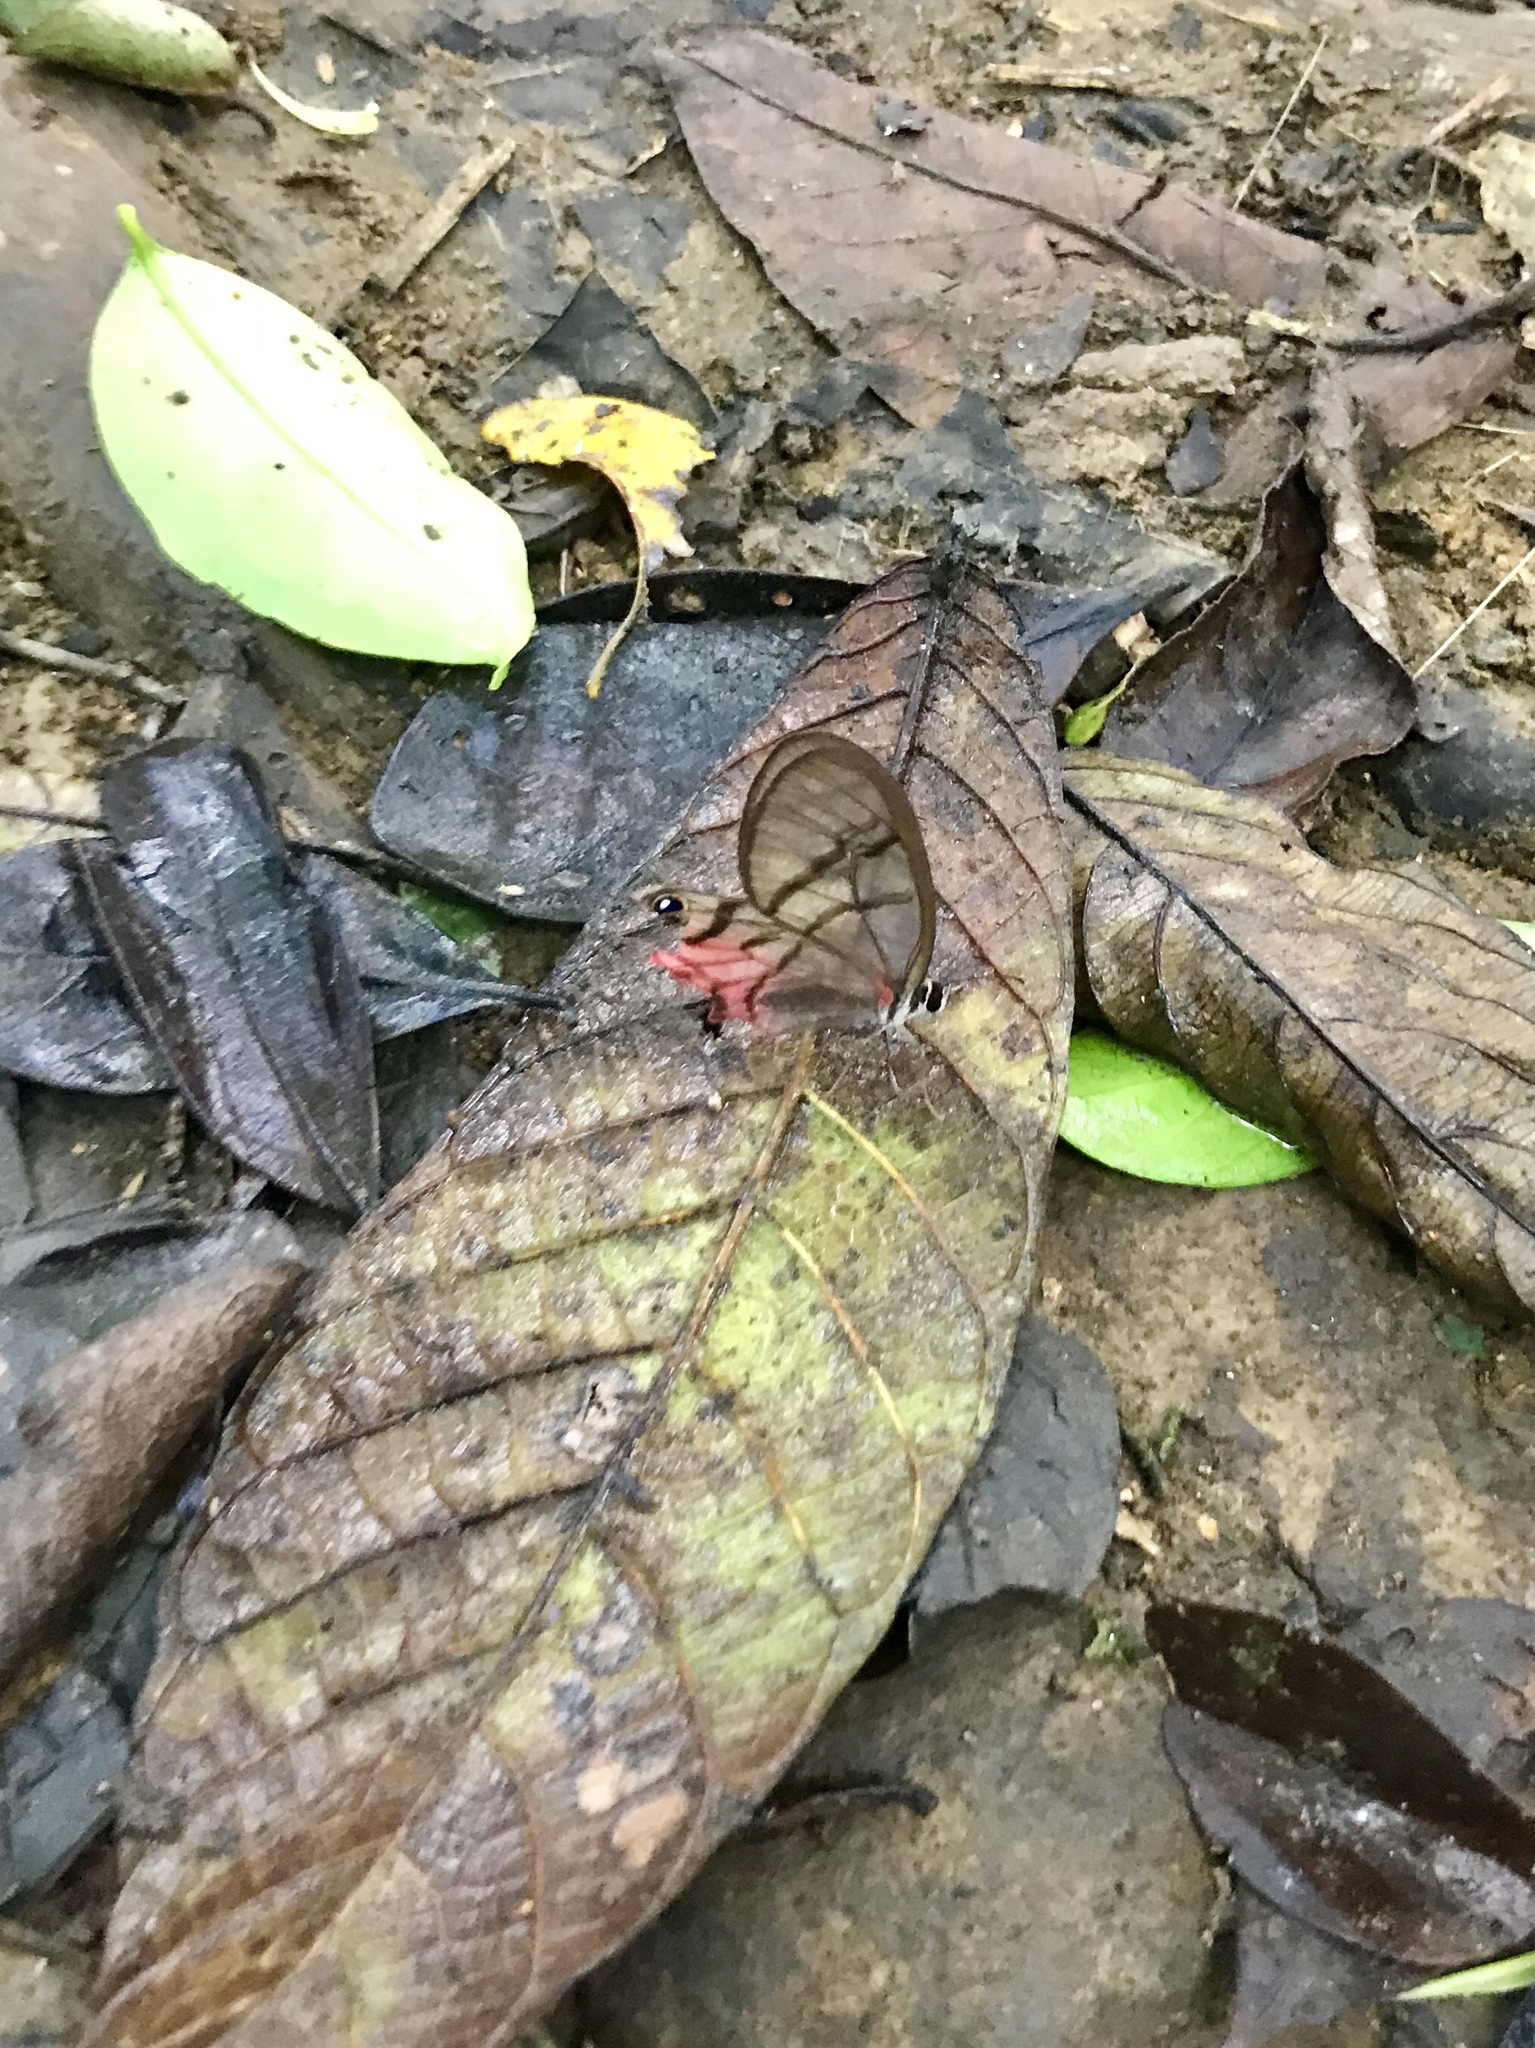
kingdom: Animalia
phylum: Arthropoda
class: Insecta
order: Lepidoptera
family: Nymphalidae
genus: Haetera
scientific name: Haetera macleannania
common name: Reddish clearwing-satyr
